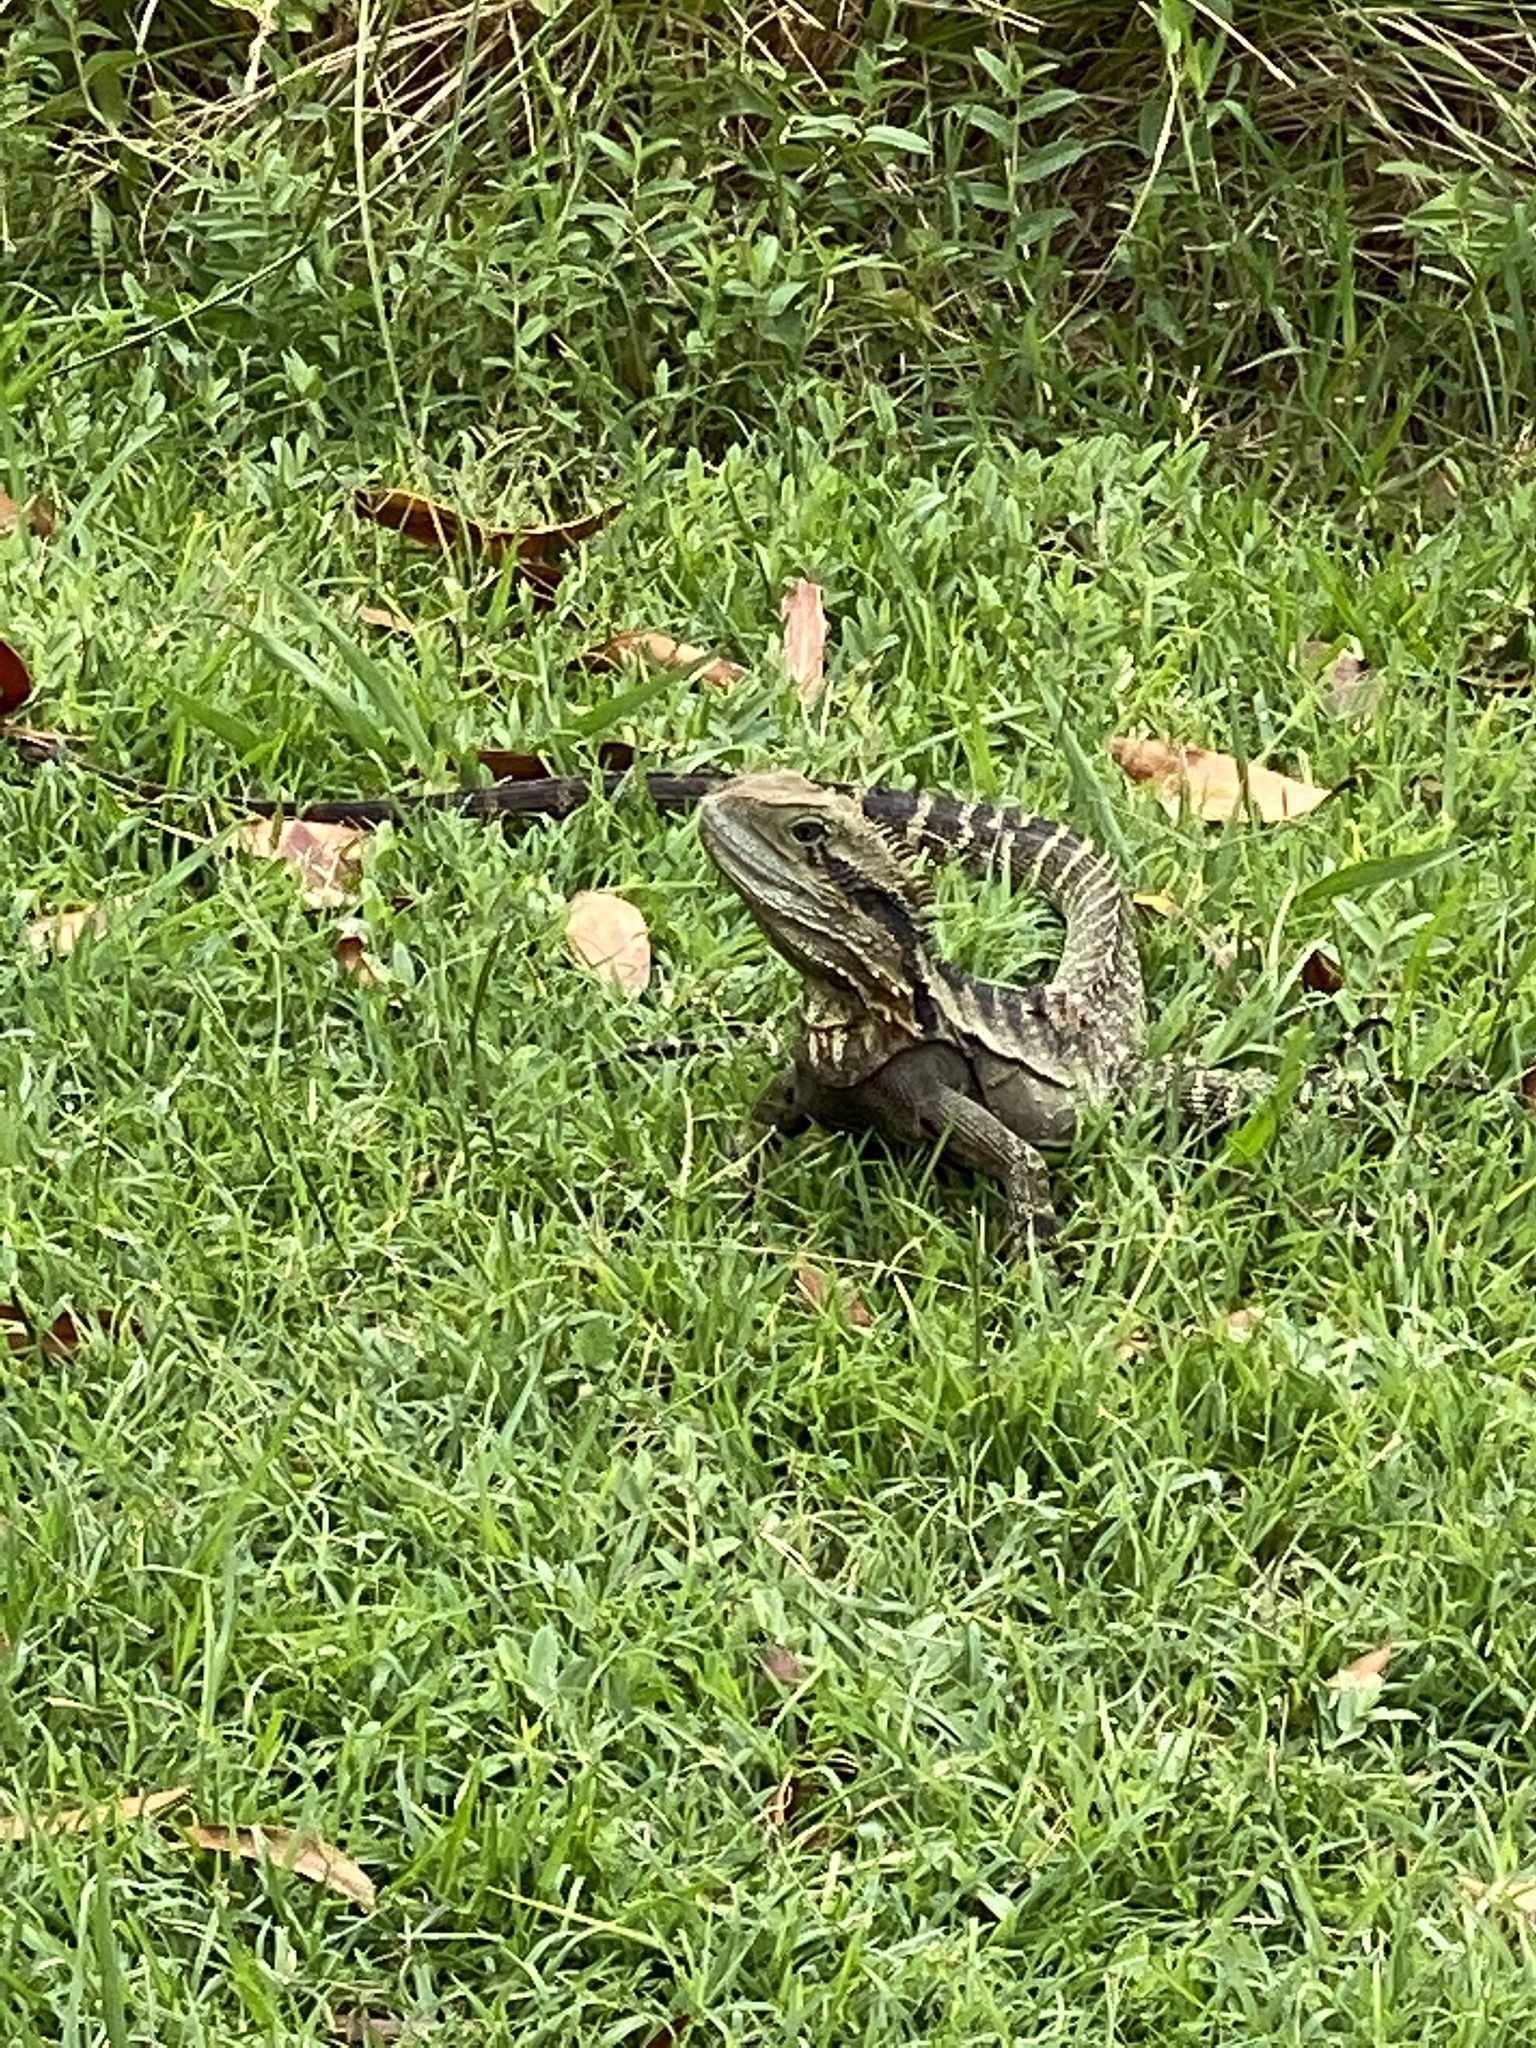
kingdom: Animalia
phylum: Chordata
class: Squamata
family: Agamidae
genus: Intellagama
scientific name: Intellagama lesueurii
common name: Eastern water dragon
